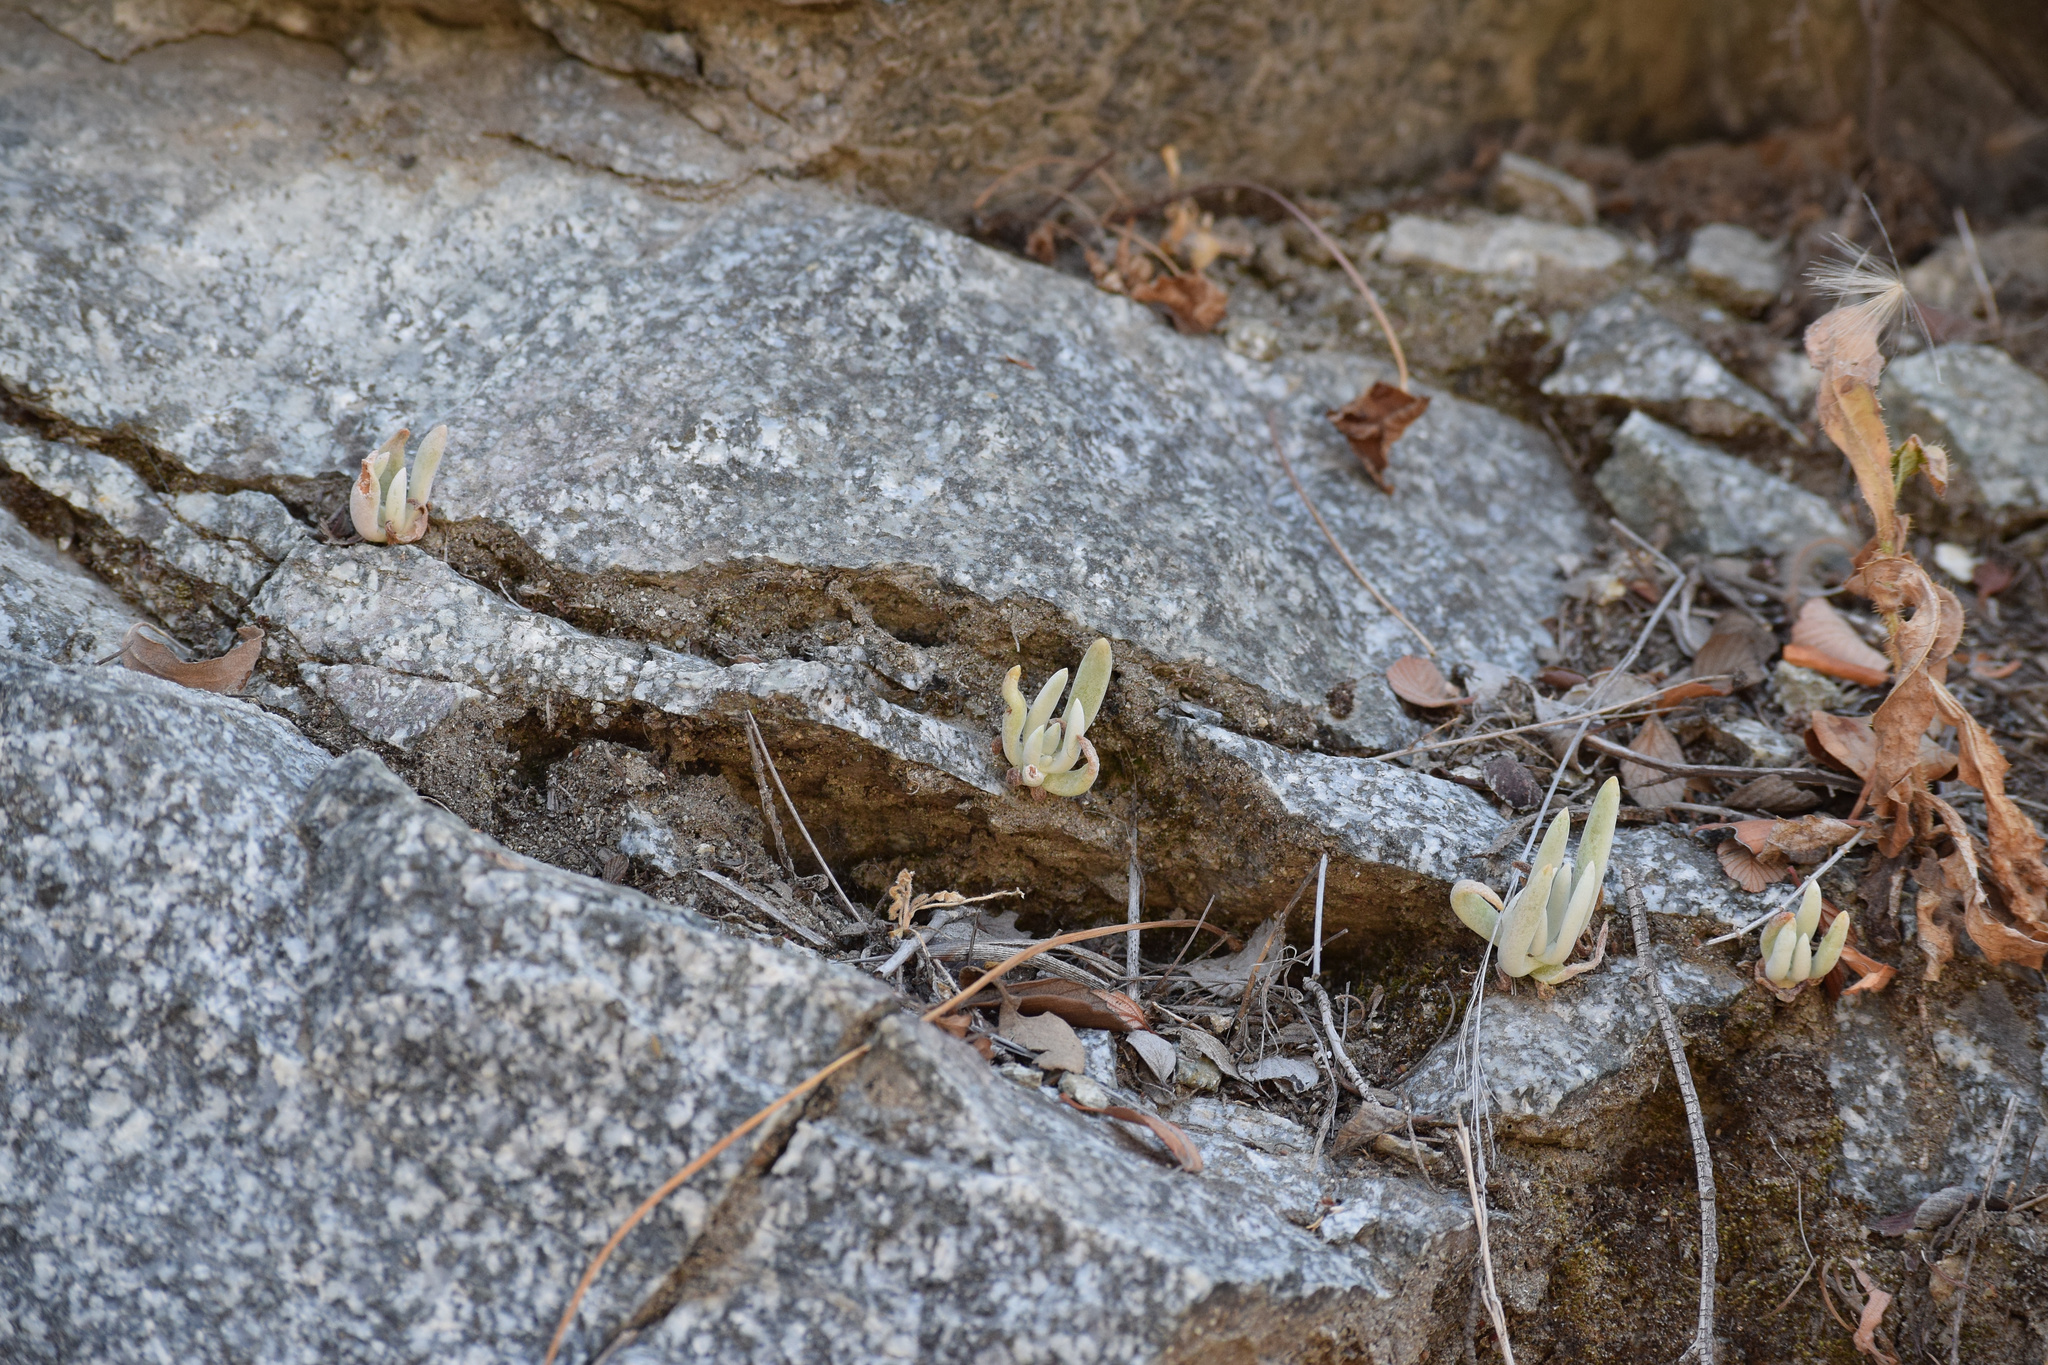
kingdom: Plantae
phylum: Tracheophyta
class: Magnoliopsida
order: Saxifragales
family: Crassulaceae
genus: Dudleya
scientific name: Dudleya densiflora
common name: San gabriel mountains dudleya
